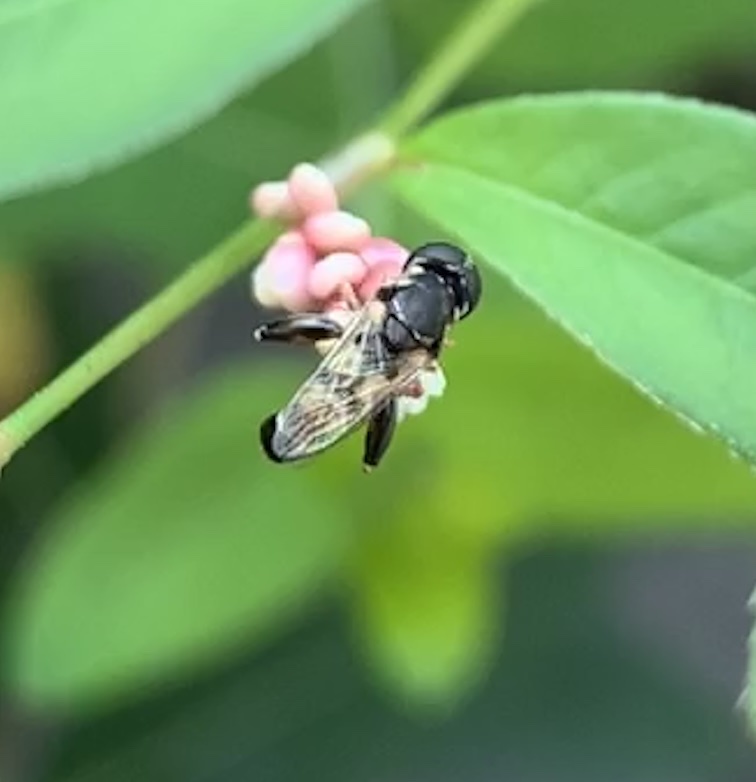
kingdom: Animalia
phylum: Arthropoda
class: Insecta
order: Diptera
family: Syrphidae
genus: Syritta
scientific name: Syritta pipiens
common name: Hover fly
